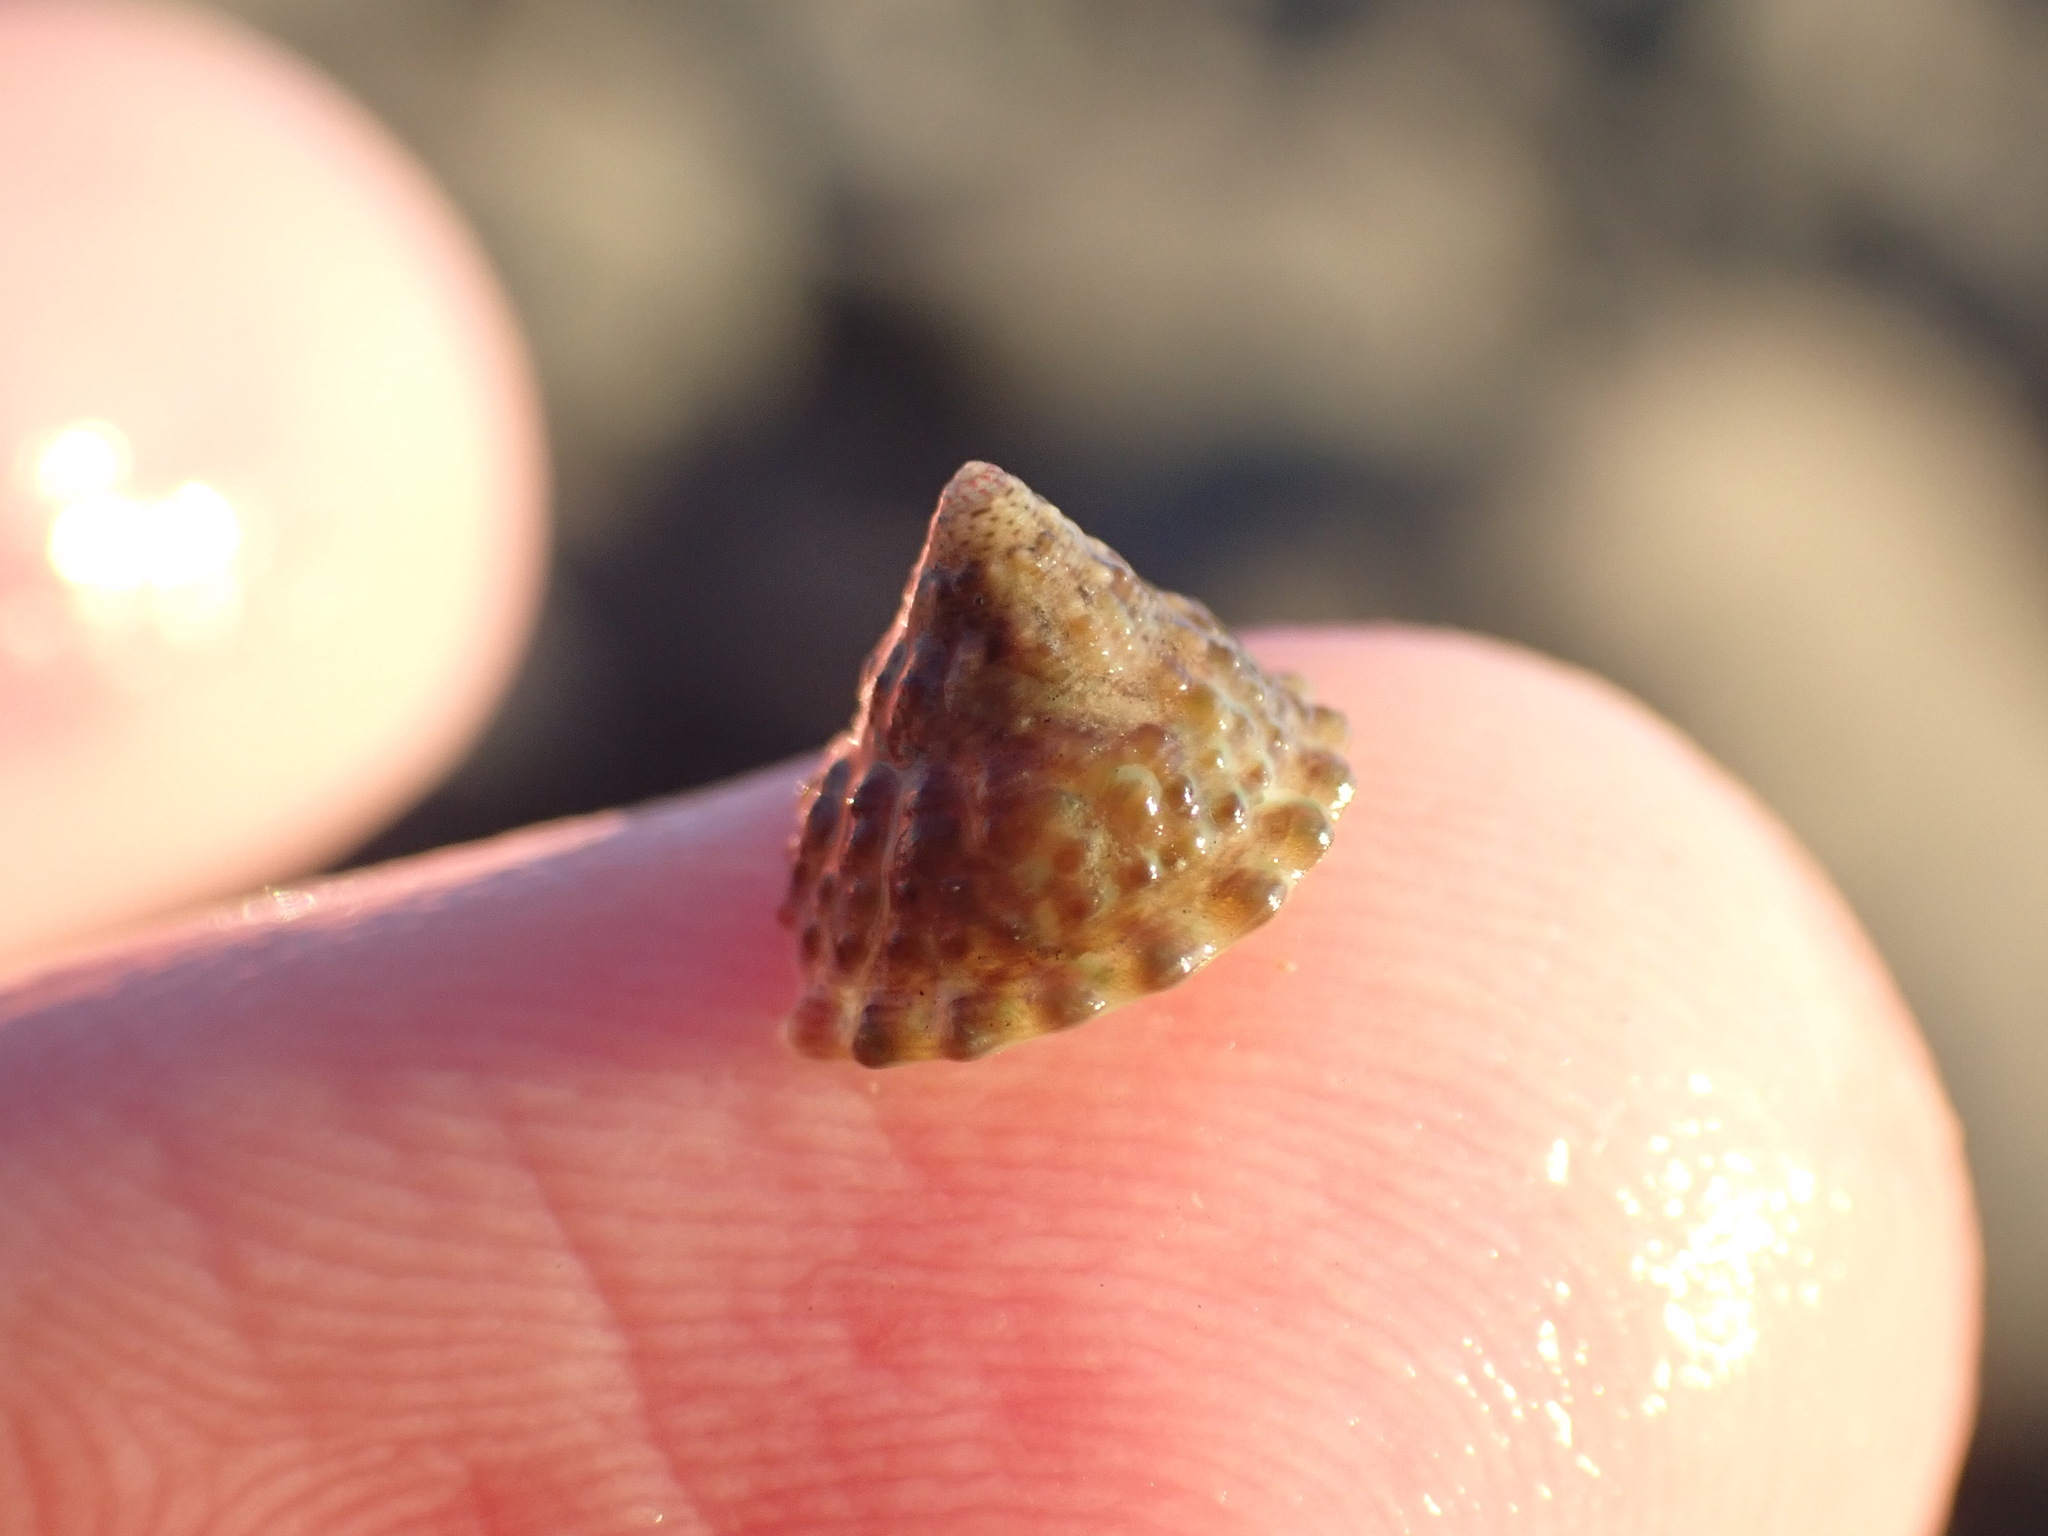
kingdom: Animalia
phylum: Mollusca
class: Gastropoda
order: Trochida
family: Trochidae
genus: Coelotrochus
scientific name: Coelotrochus viridis
